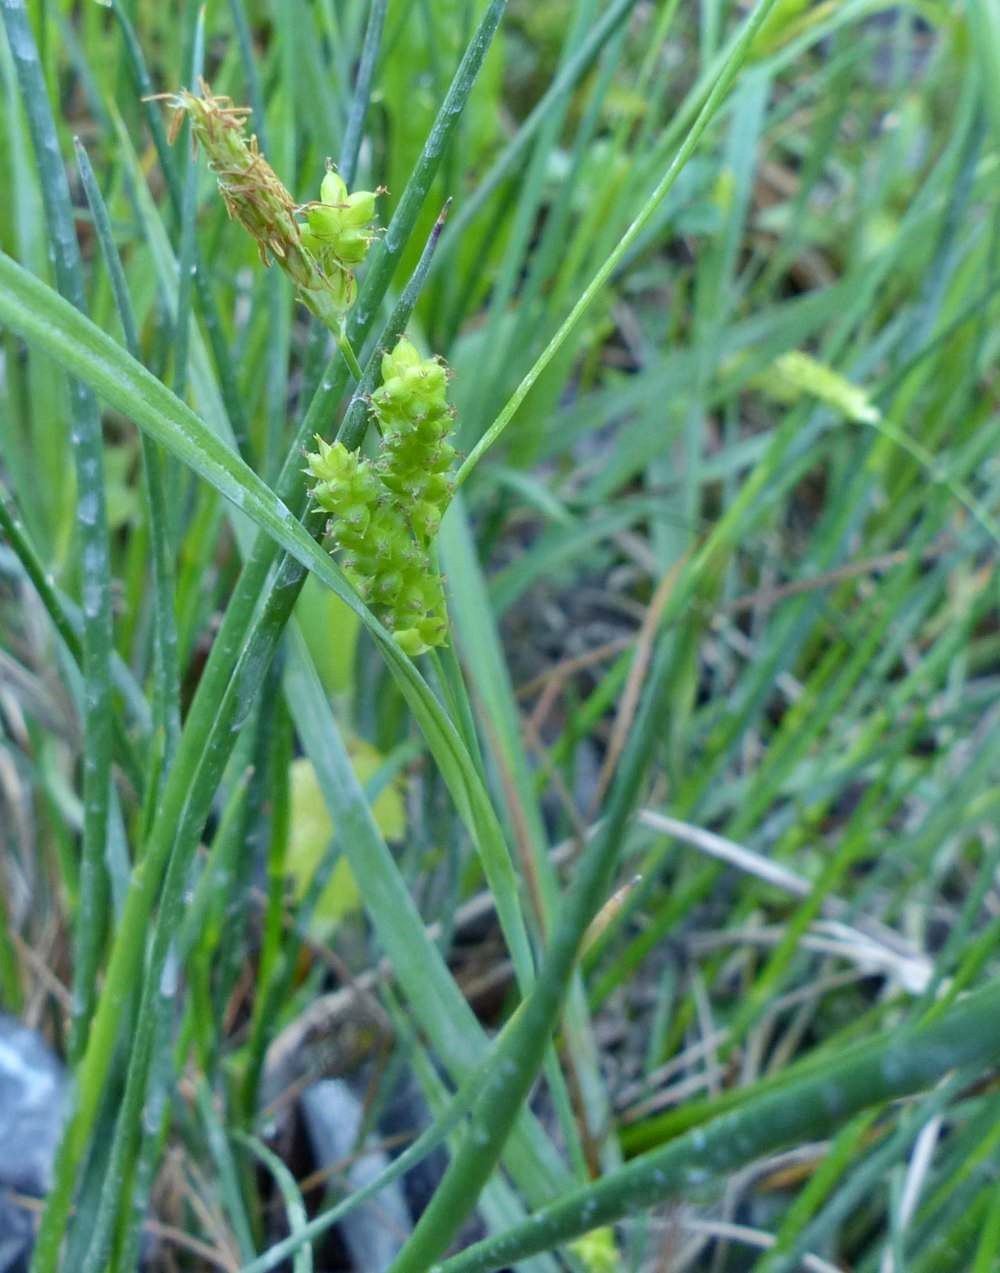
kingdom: Plantae
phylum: Tracheophyta
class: Liliopsida
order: Poales
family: Cyperaceae
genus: Carex
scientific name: Carex granularis
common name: Granular sedge
